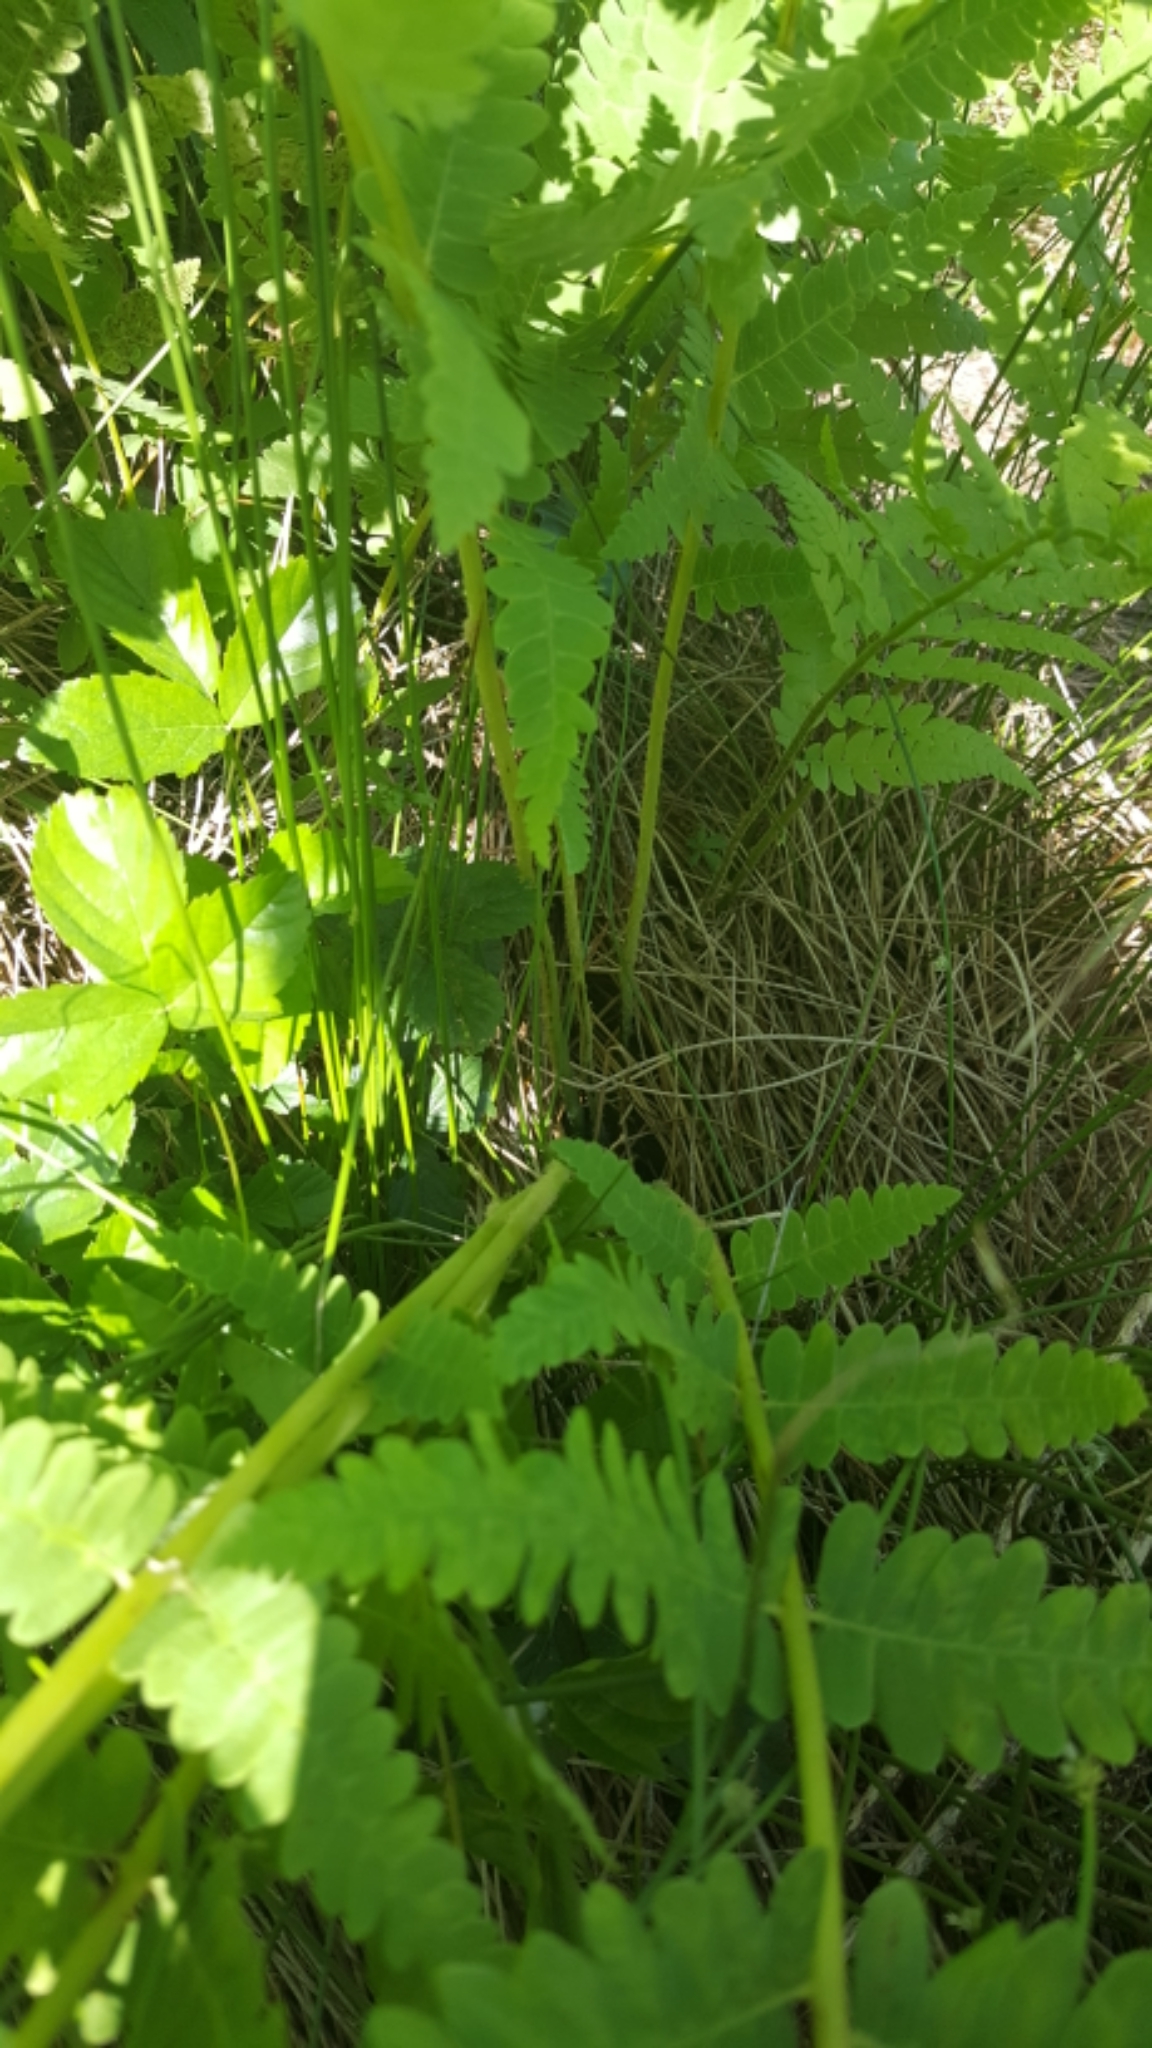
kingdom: Plantae
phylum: Tracheophyta
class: Polypodiopsida
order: Osmundales
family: Osmundaceae
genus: Osmundastrum
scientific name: Osmundastrum cinnamomeum
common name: Cinnamon fern
